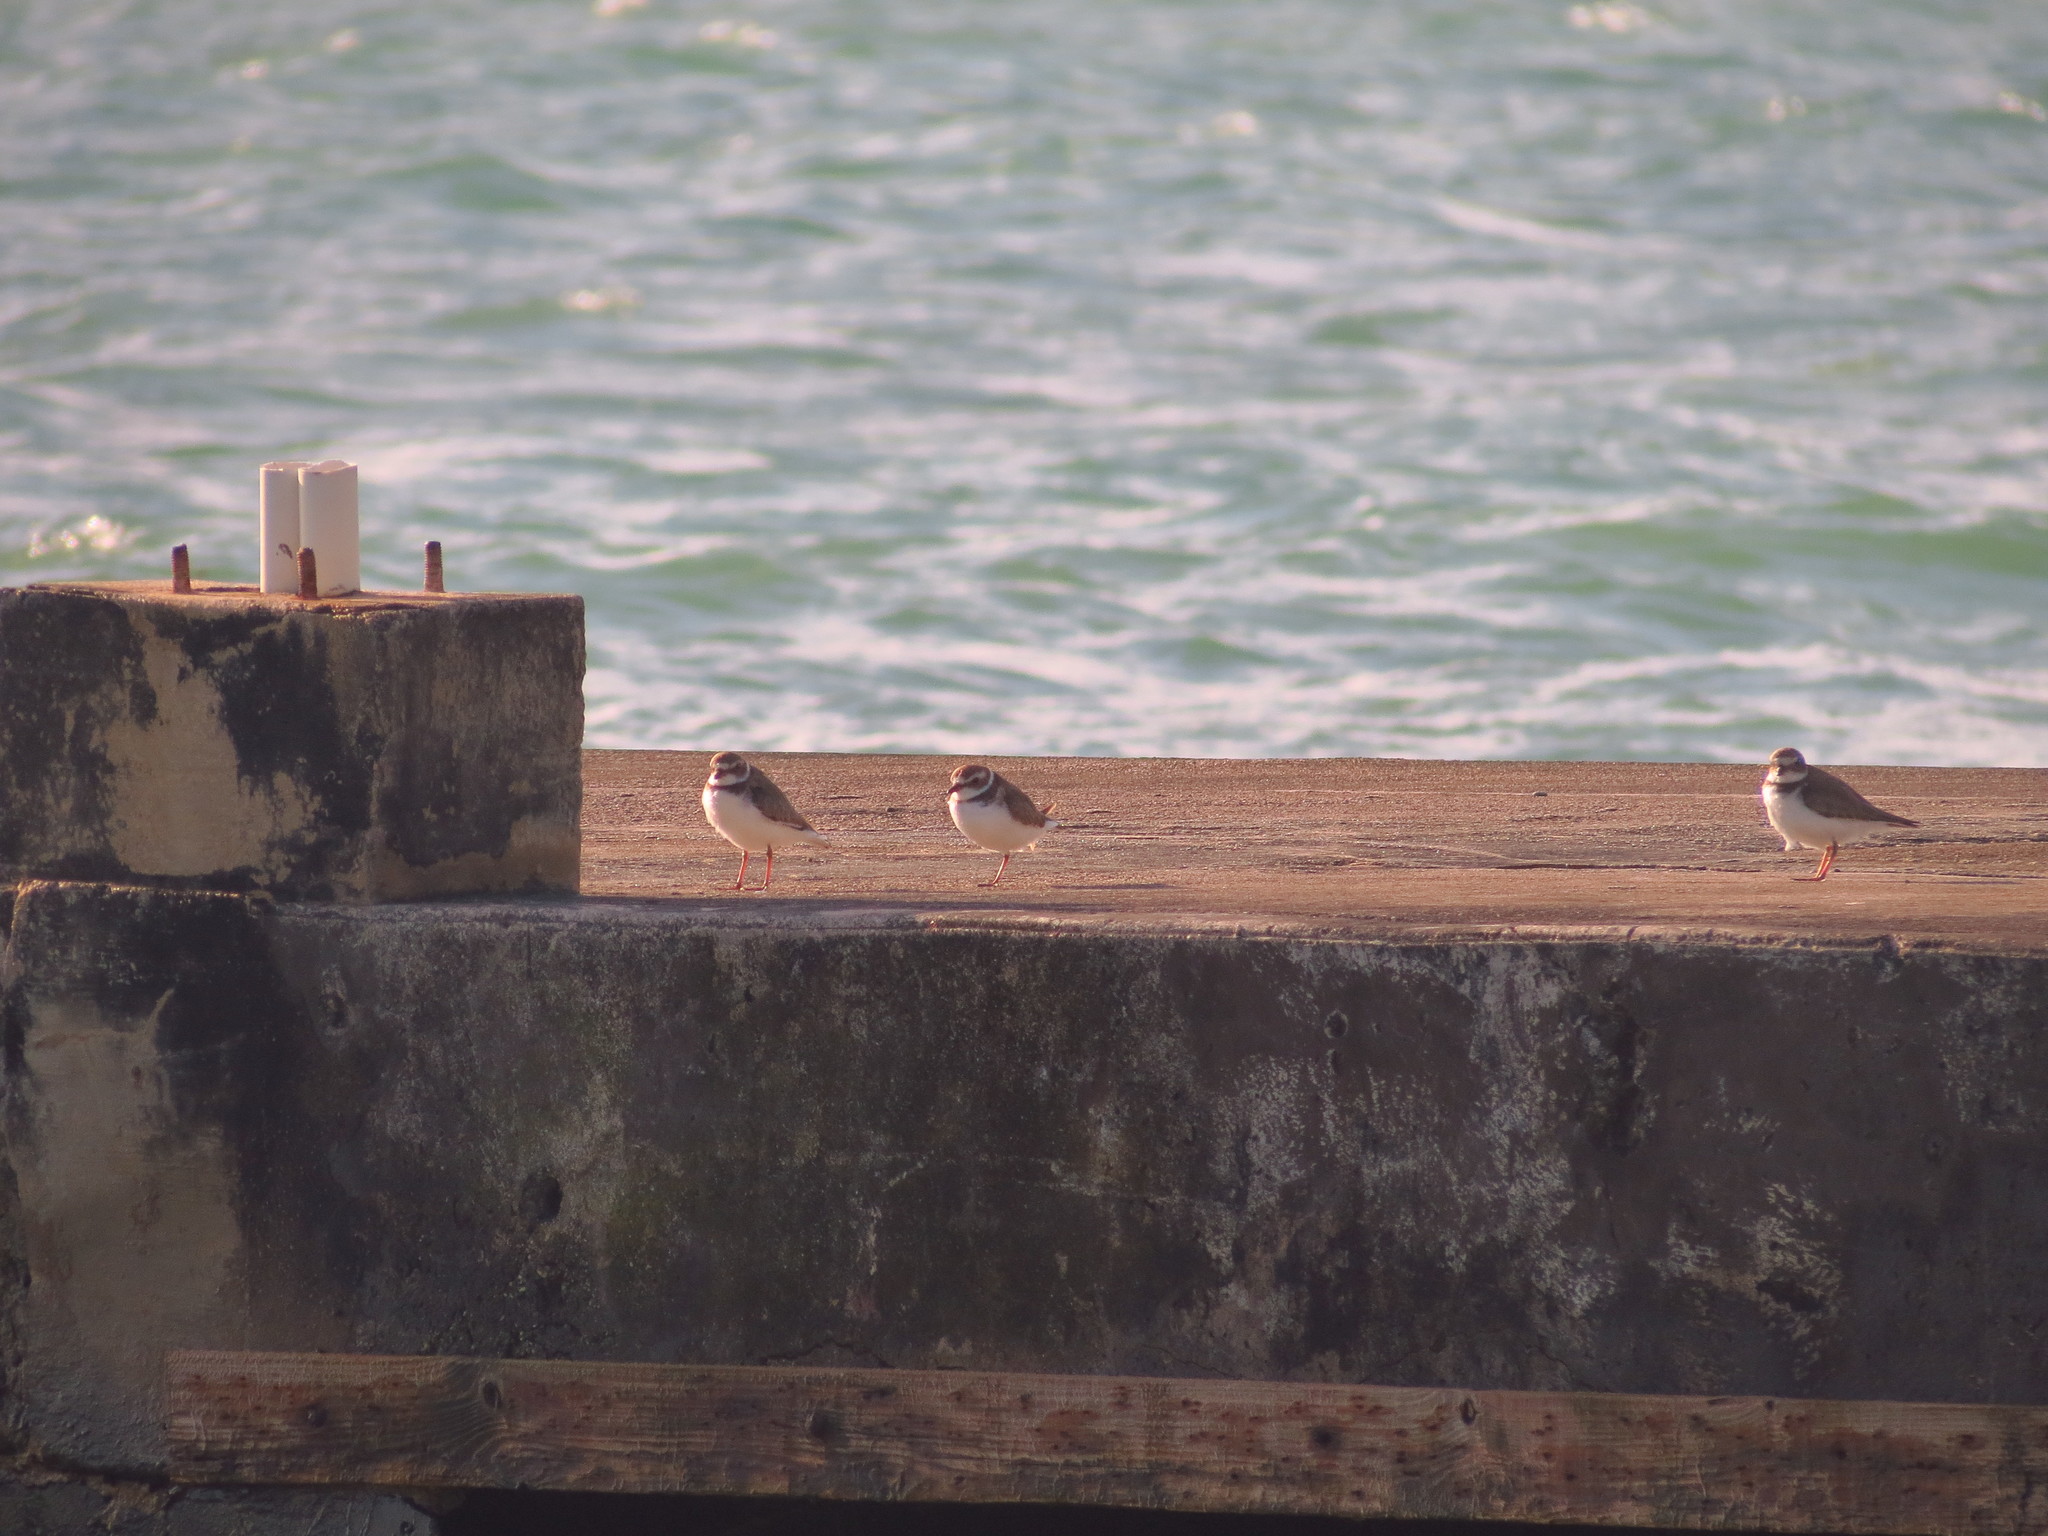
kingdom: Animalia
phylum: Chordata
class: Aves
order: Charadriiformes
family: Charadriidae
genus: Charadrius
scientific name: Charadrius semipalmatus
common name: Semipalmated plover
